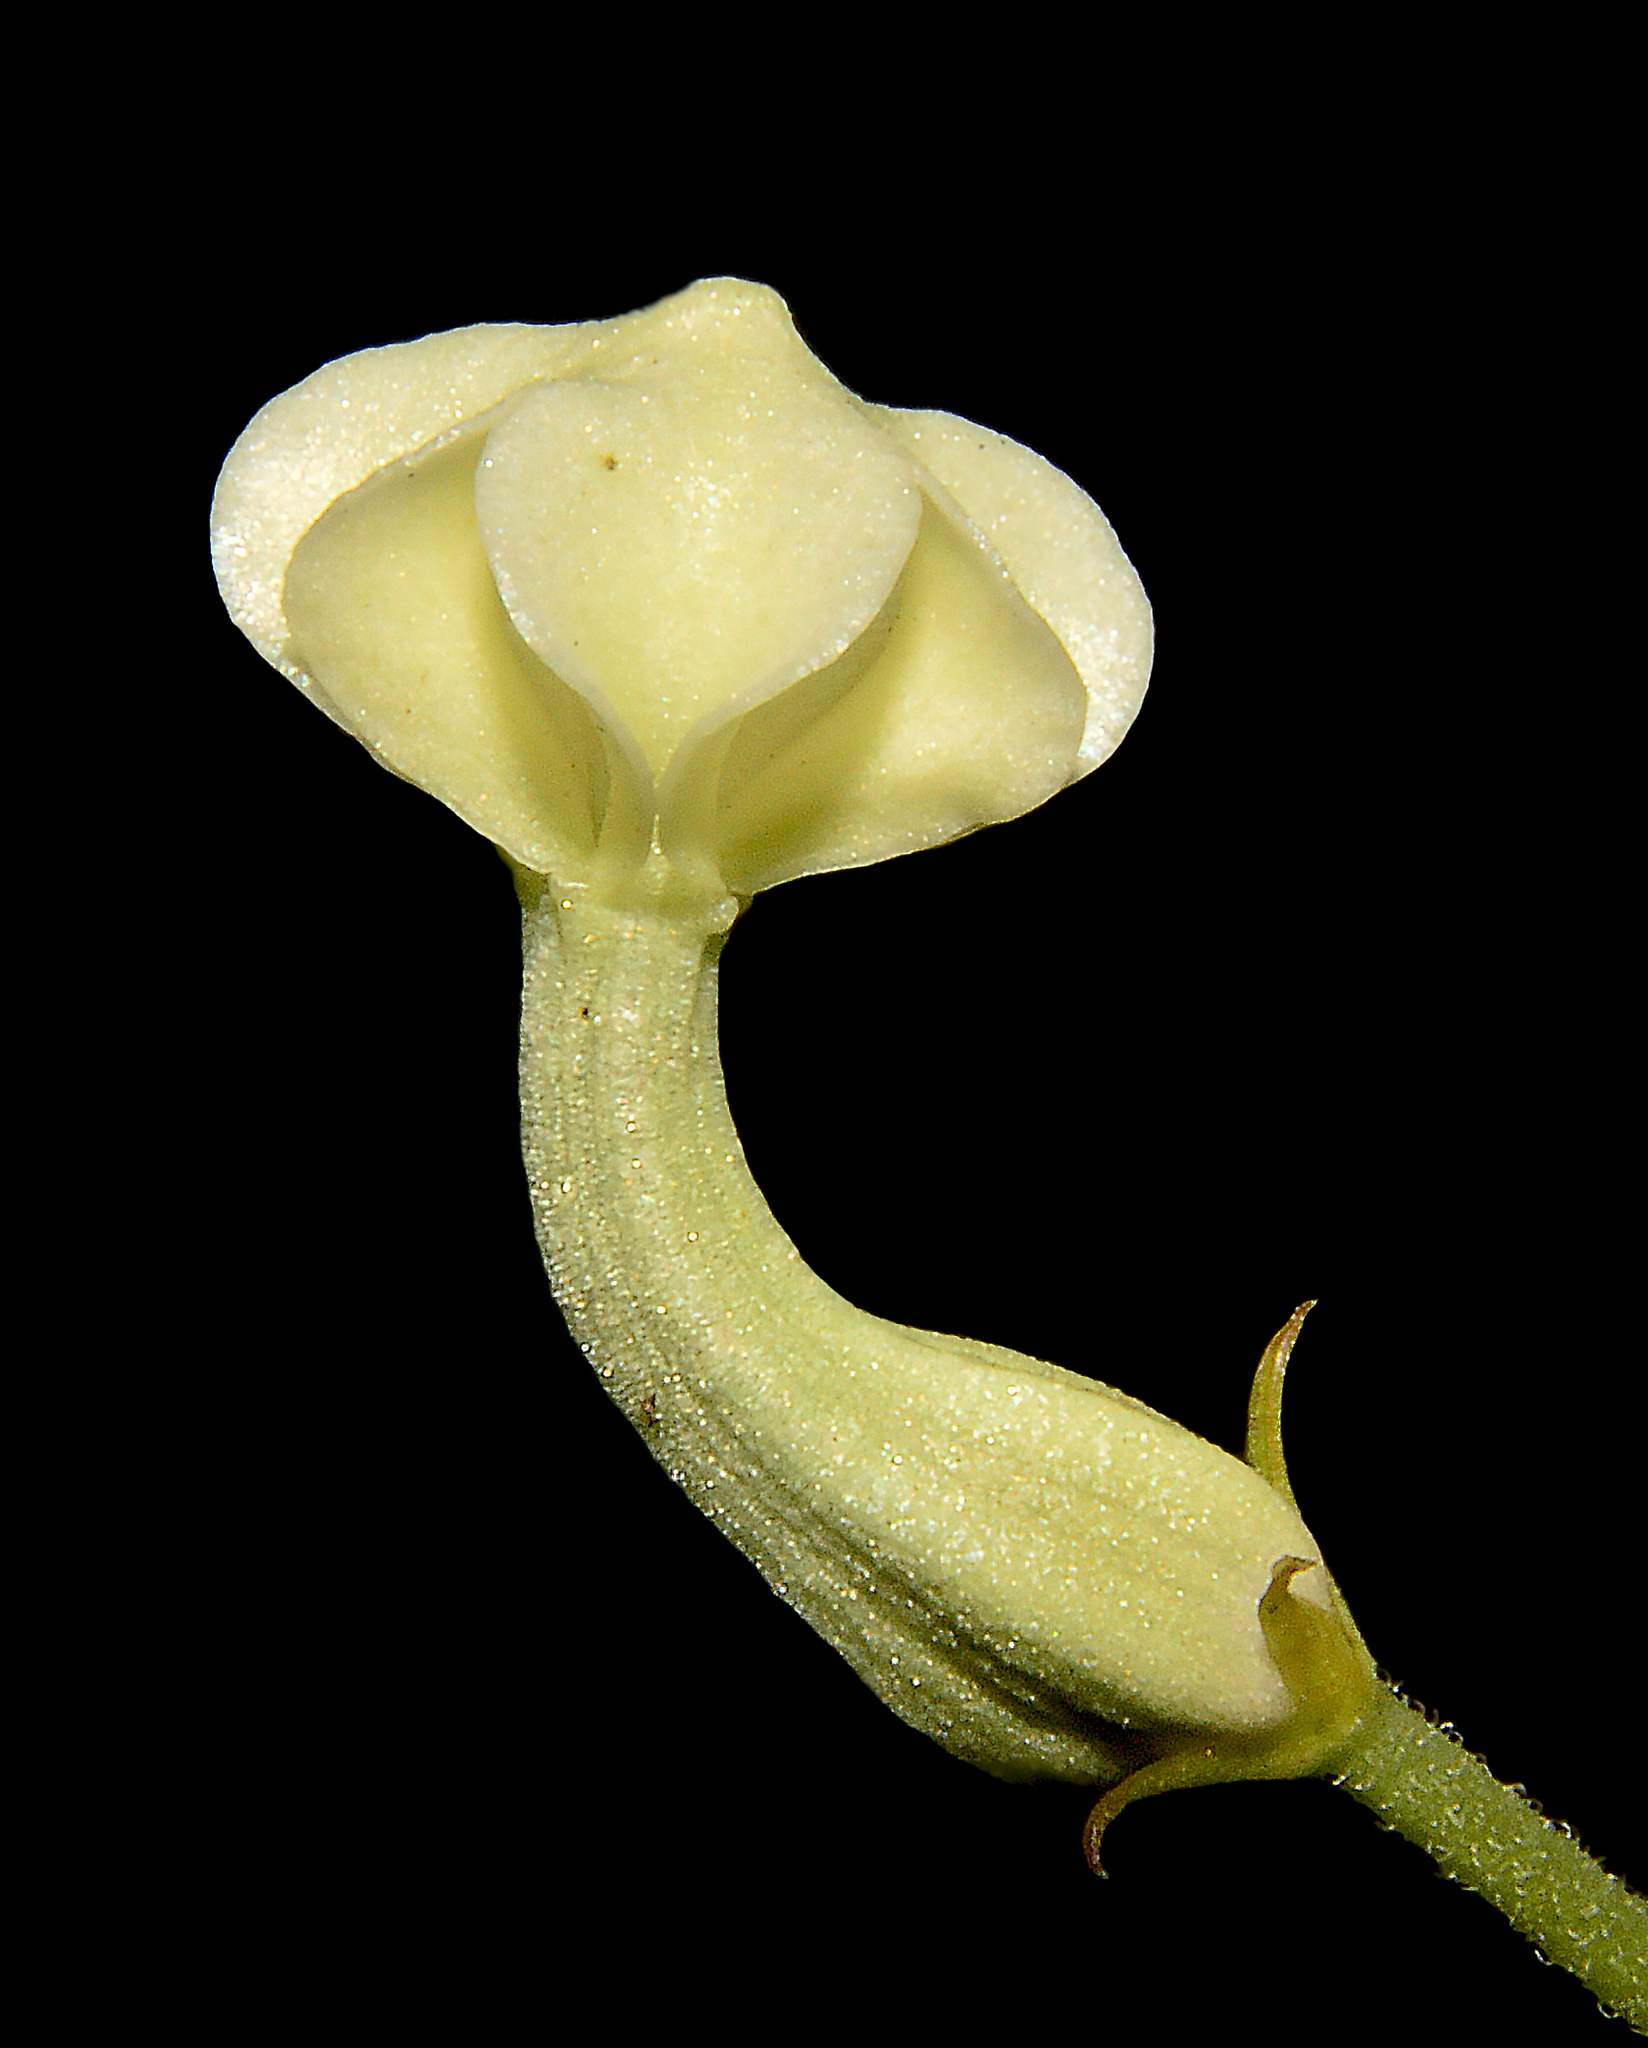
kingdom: Plantae
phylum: Tracheophyta
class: Magnoliopsida
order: Gentianales
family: Apocynaceae
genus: Ceropegia
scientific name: Ceropegia santapaui
